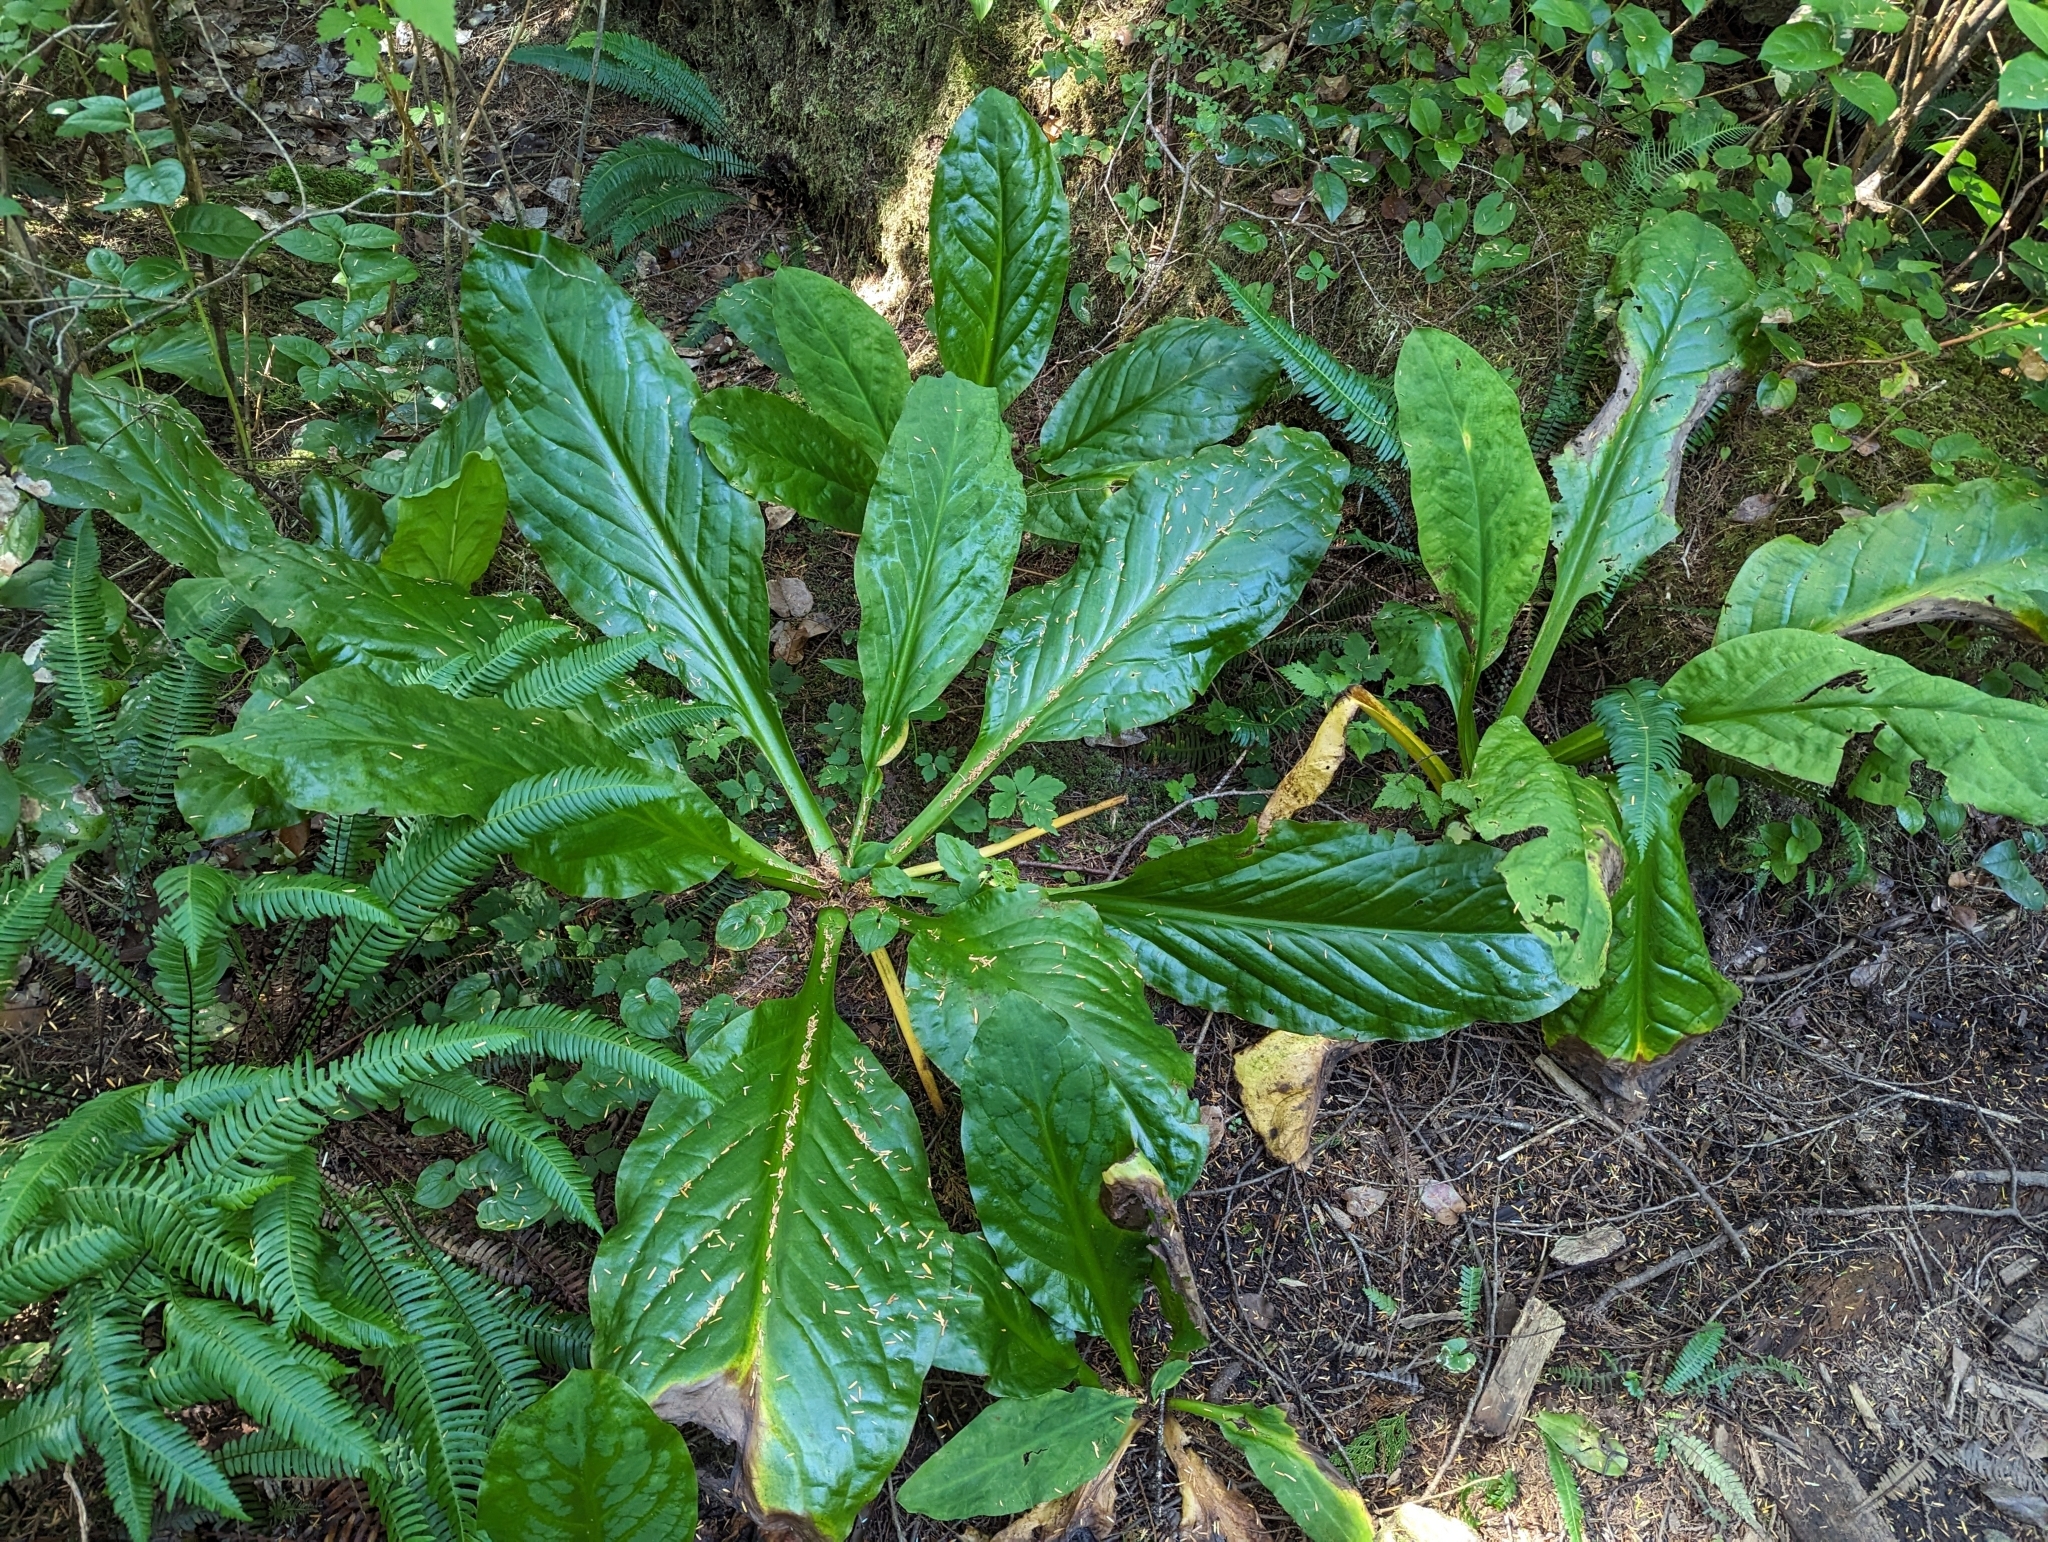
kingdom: Plantae
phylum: Tracheophyta
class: Liliopsida
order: Alismatales
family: Araceae
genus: Lysichiton
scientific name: Lysichiton americanus
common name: American skunk cabbage
